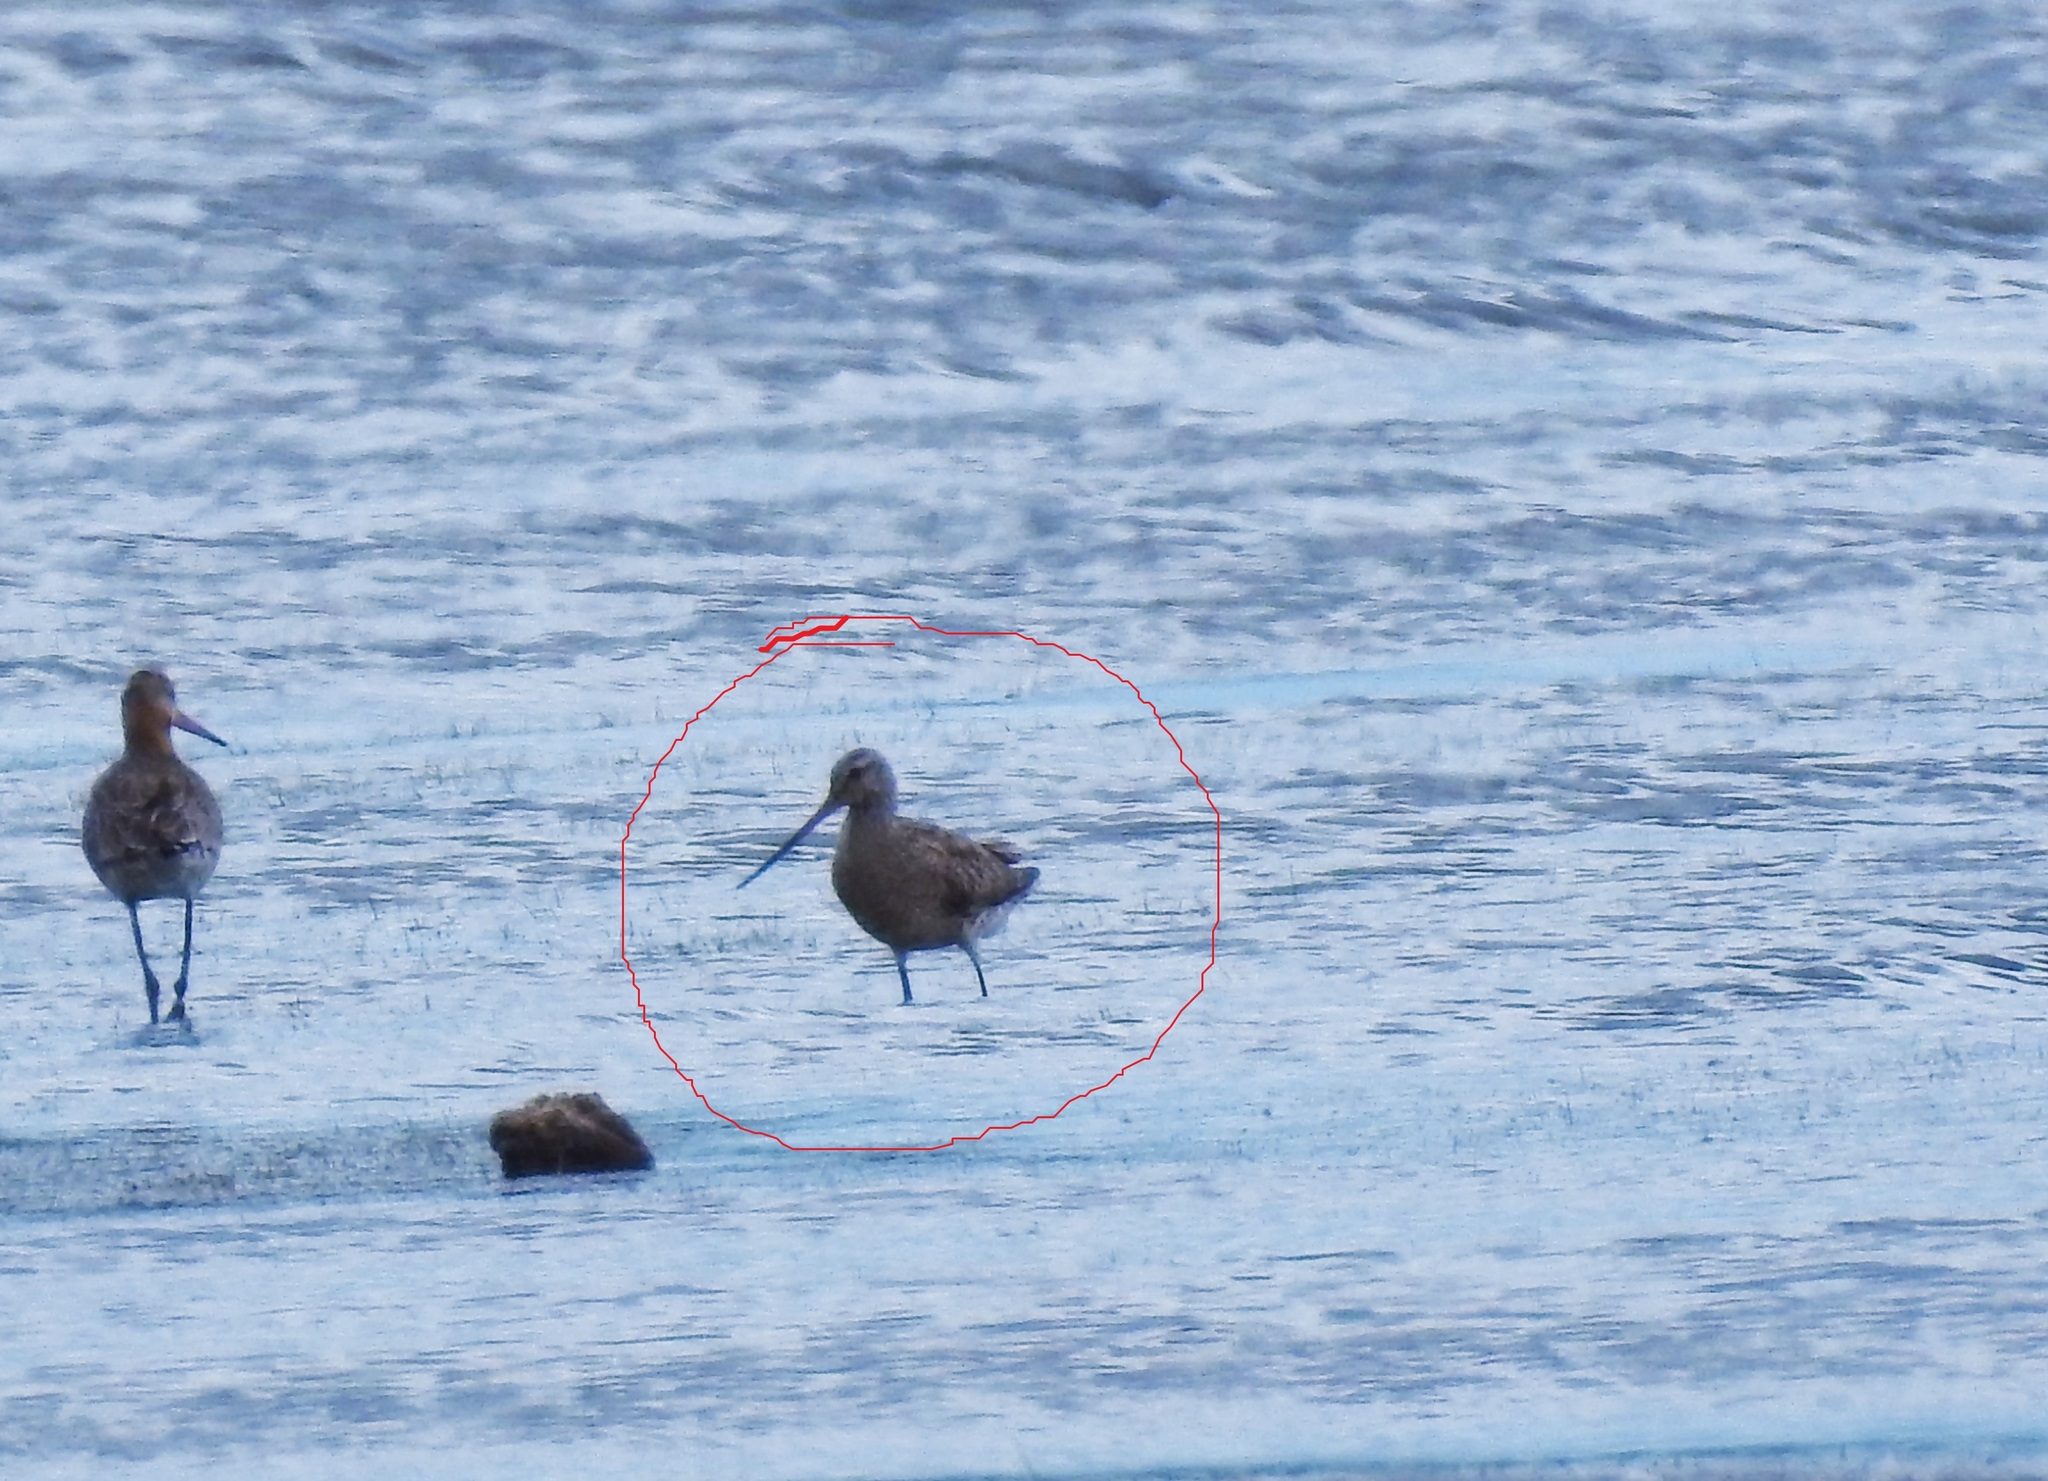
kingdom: Animalia
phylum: Chordata
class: Aves
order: Charadriiformes
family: Scolopacidae
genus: Limosa
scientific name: Limosa lapponica
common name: Bar-tailed godwit
